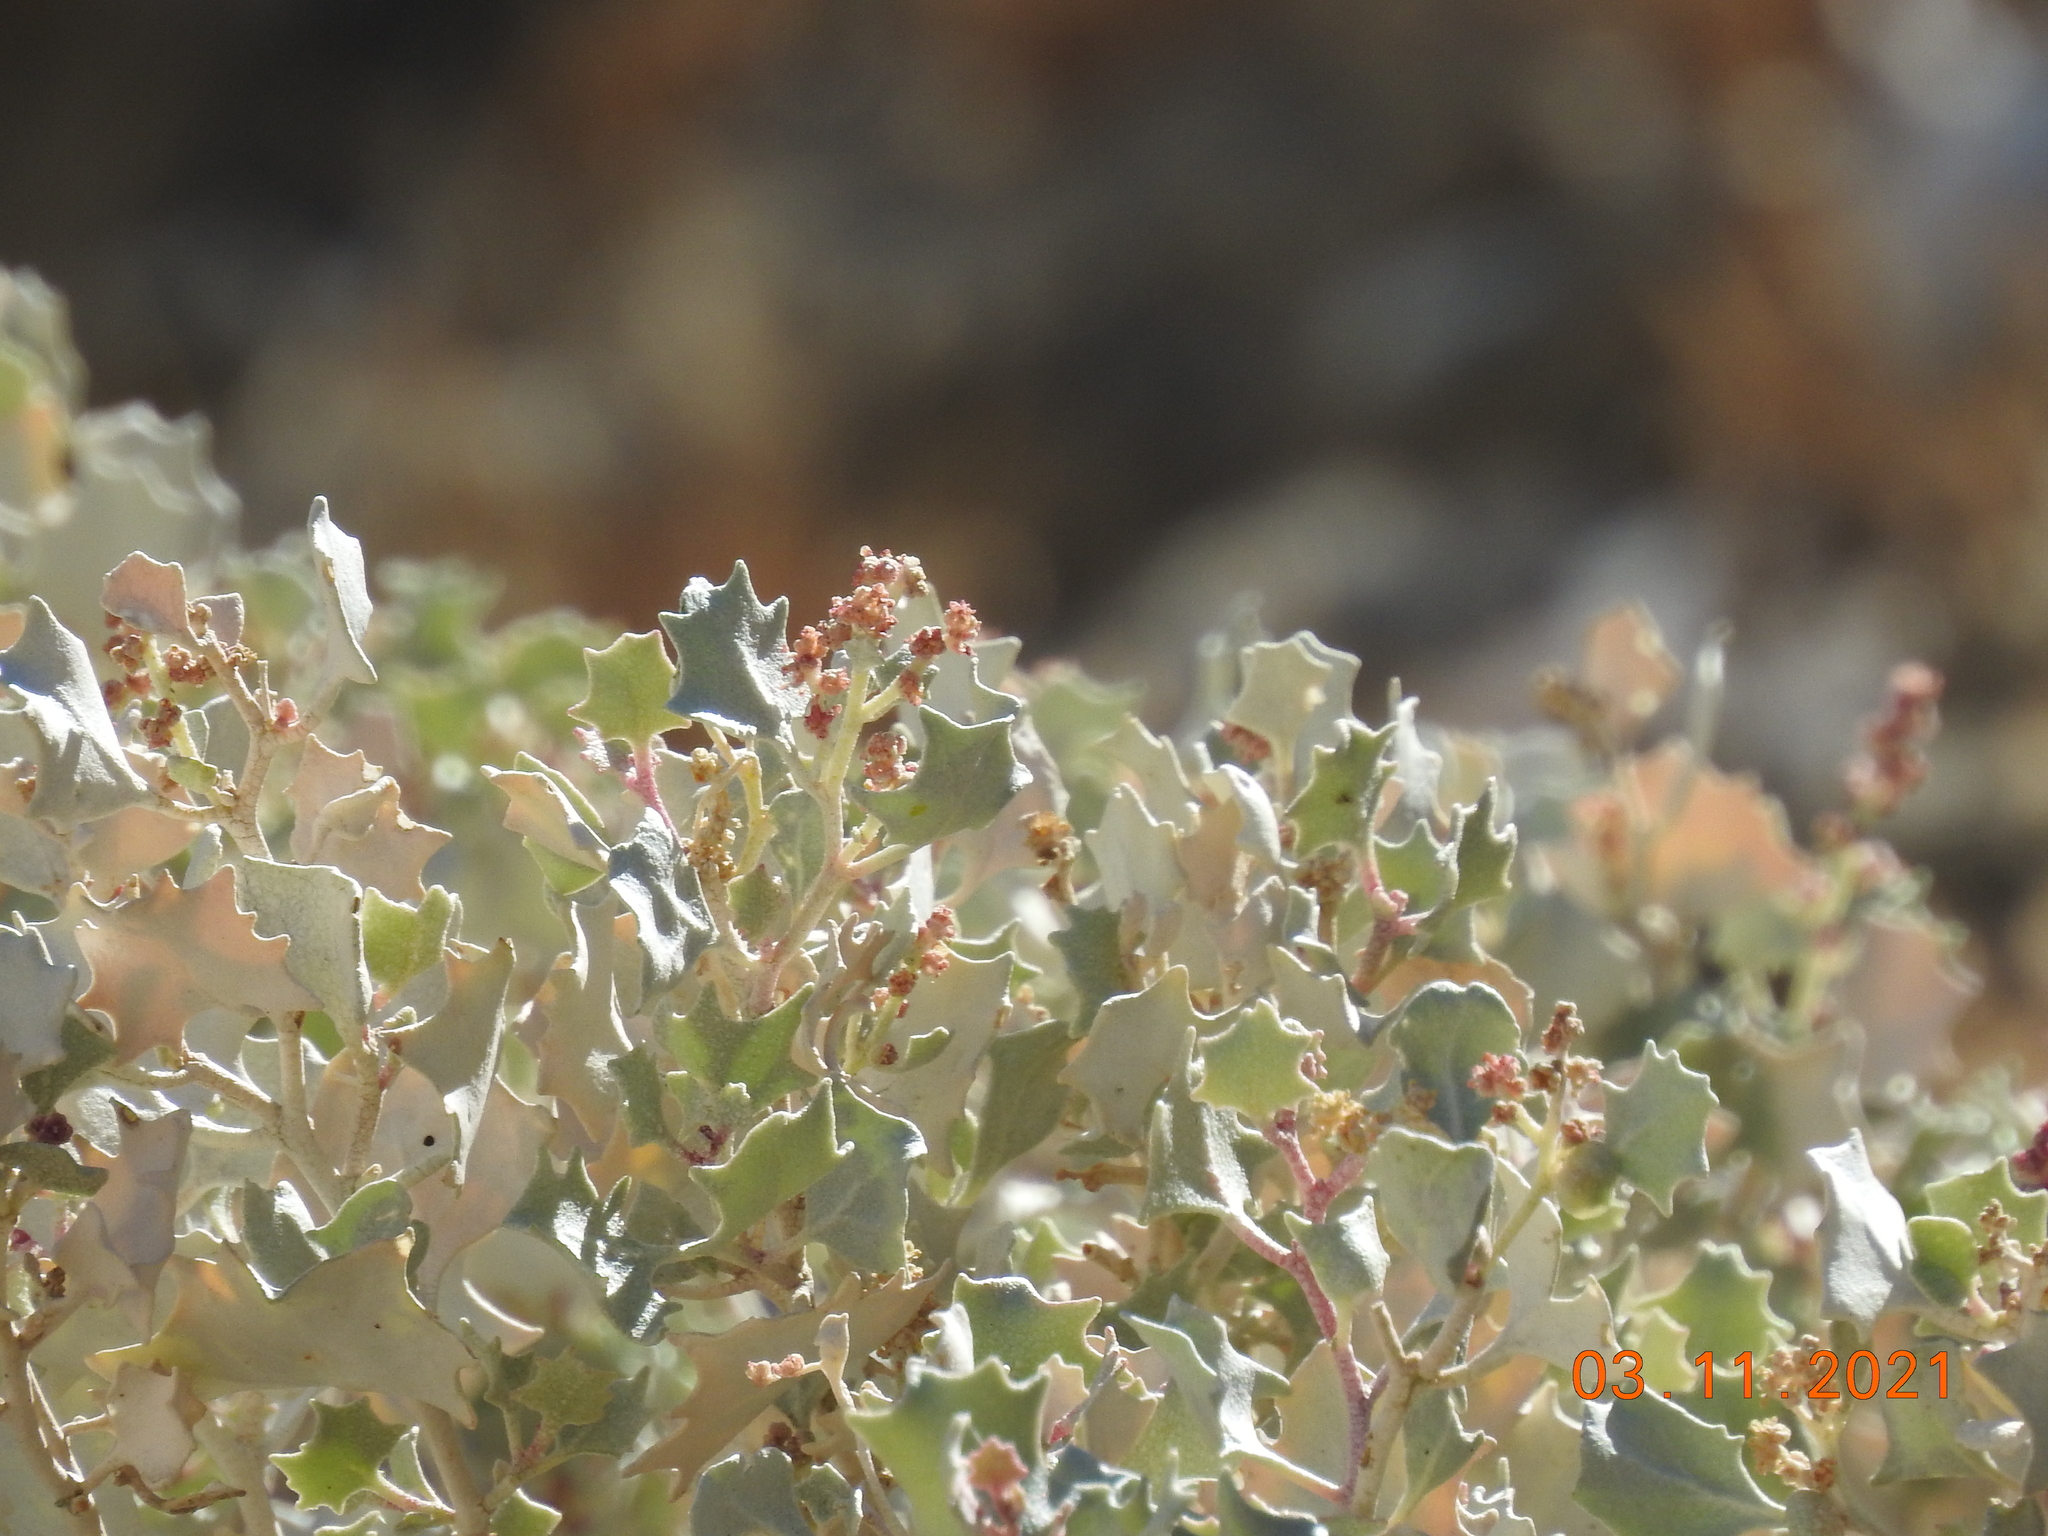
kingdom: Plantae
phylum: Tracheophyta
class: Magnoliopsida
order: Caryophyllales
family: Amaranthaceae
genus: Atriplex
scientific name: Atriplex hymenelytra
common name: Desert-holly
